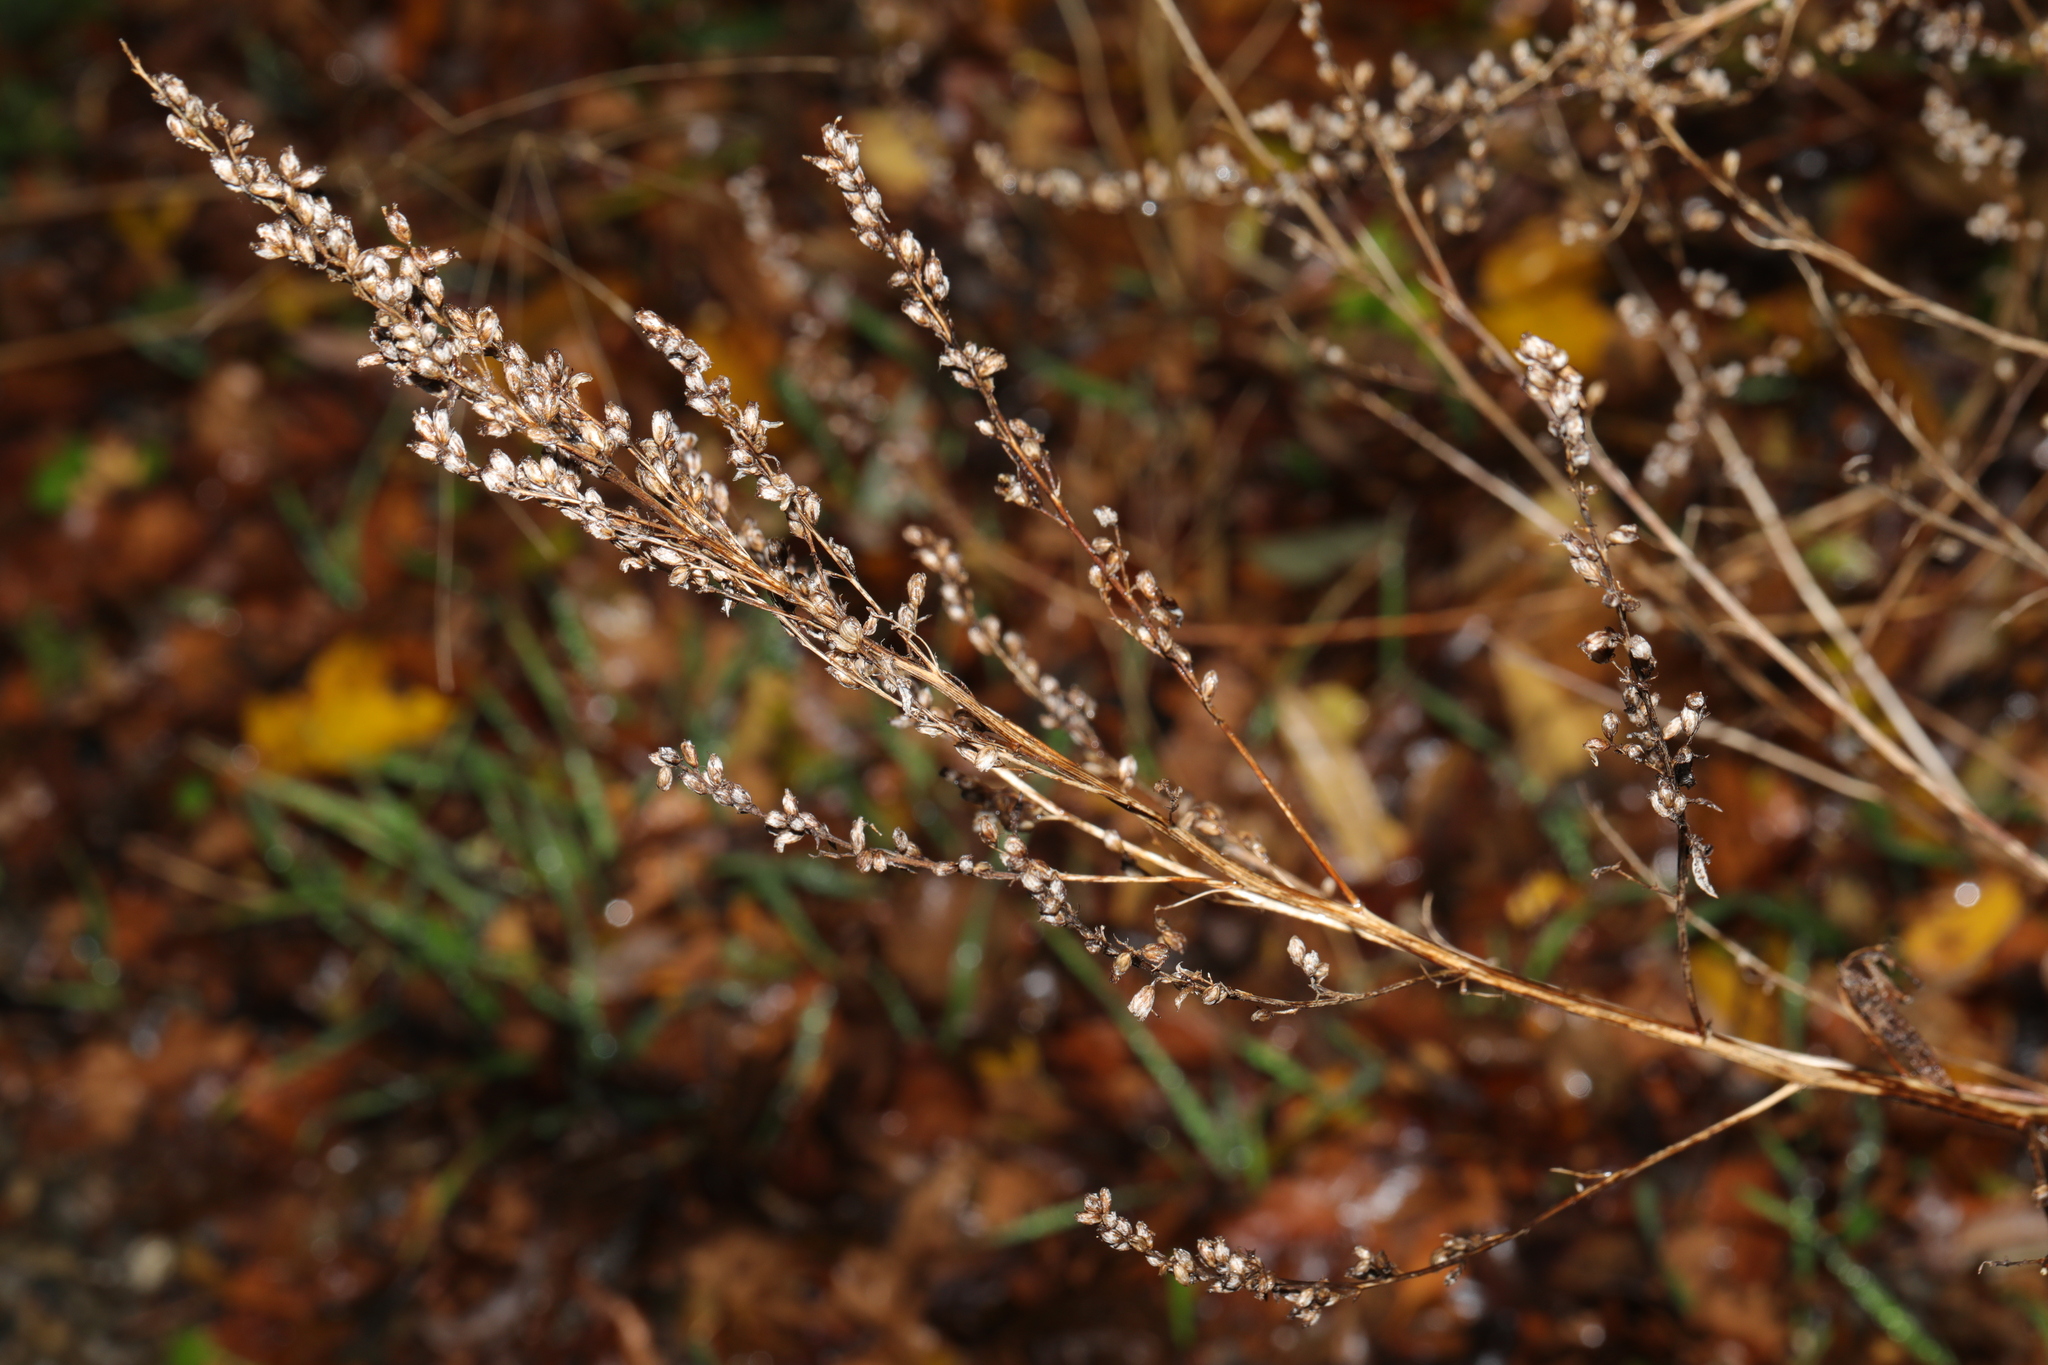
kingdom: Plantae
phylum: Tracheophyta
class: Magnoliopsida
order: Asterales
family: Asteraceae
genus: Artemisia
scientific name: Artemisia vulgaris
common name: Mugwort
